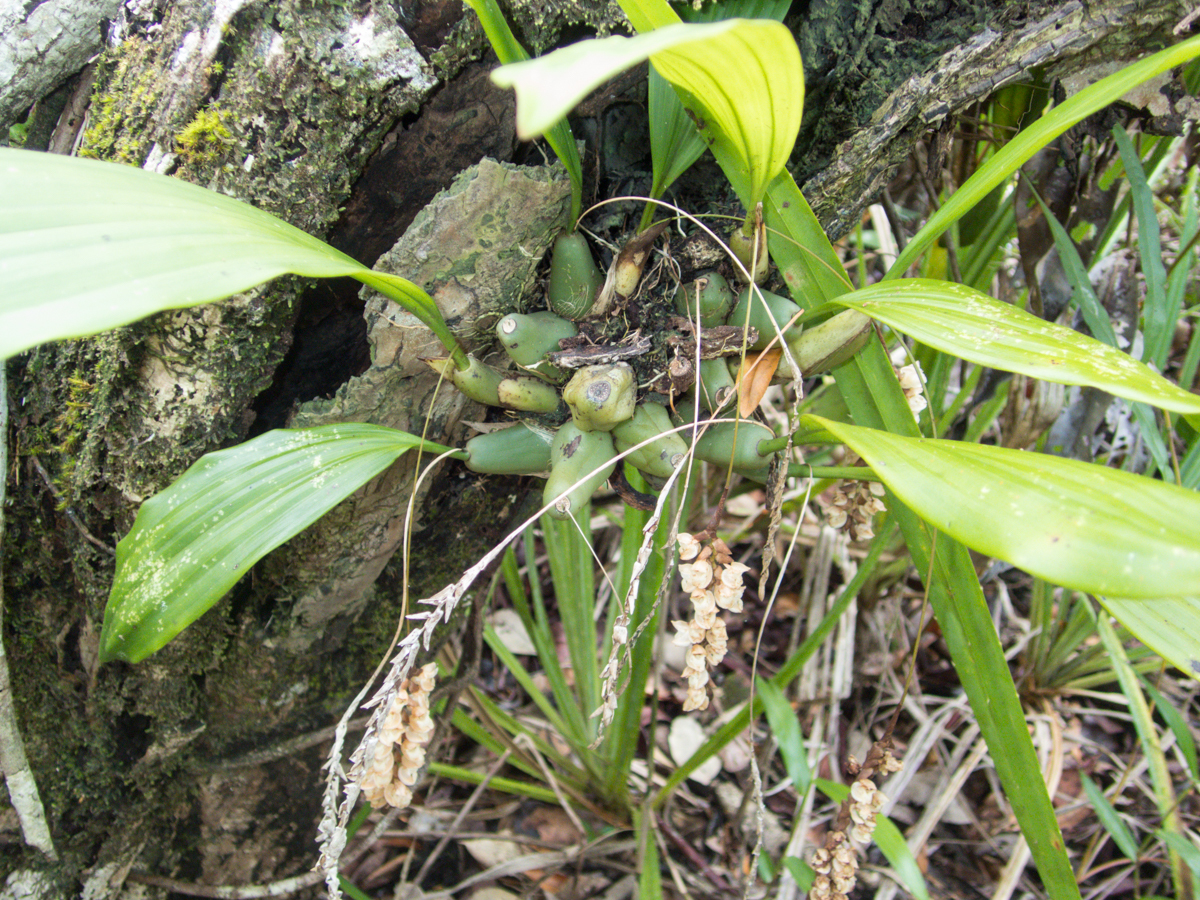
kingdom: Plantae
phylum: Tracheophyta
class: Liliopsida
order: Asparagales
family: Orchidaceae
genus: Pholidota
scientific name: Pholidota imbricata
